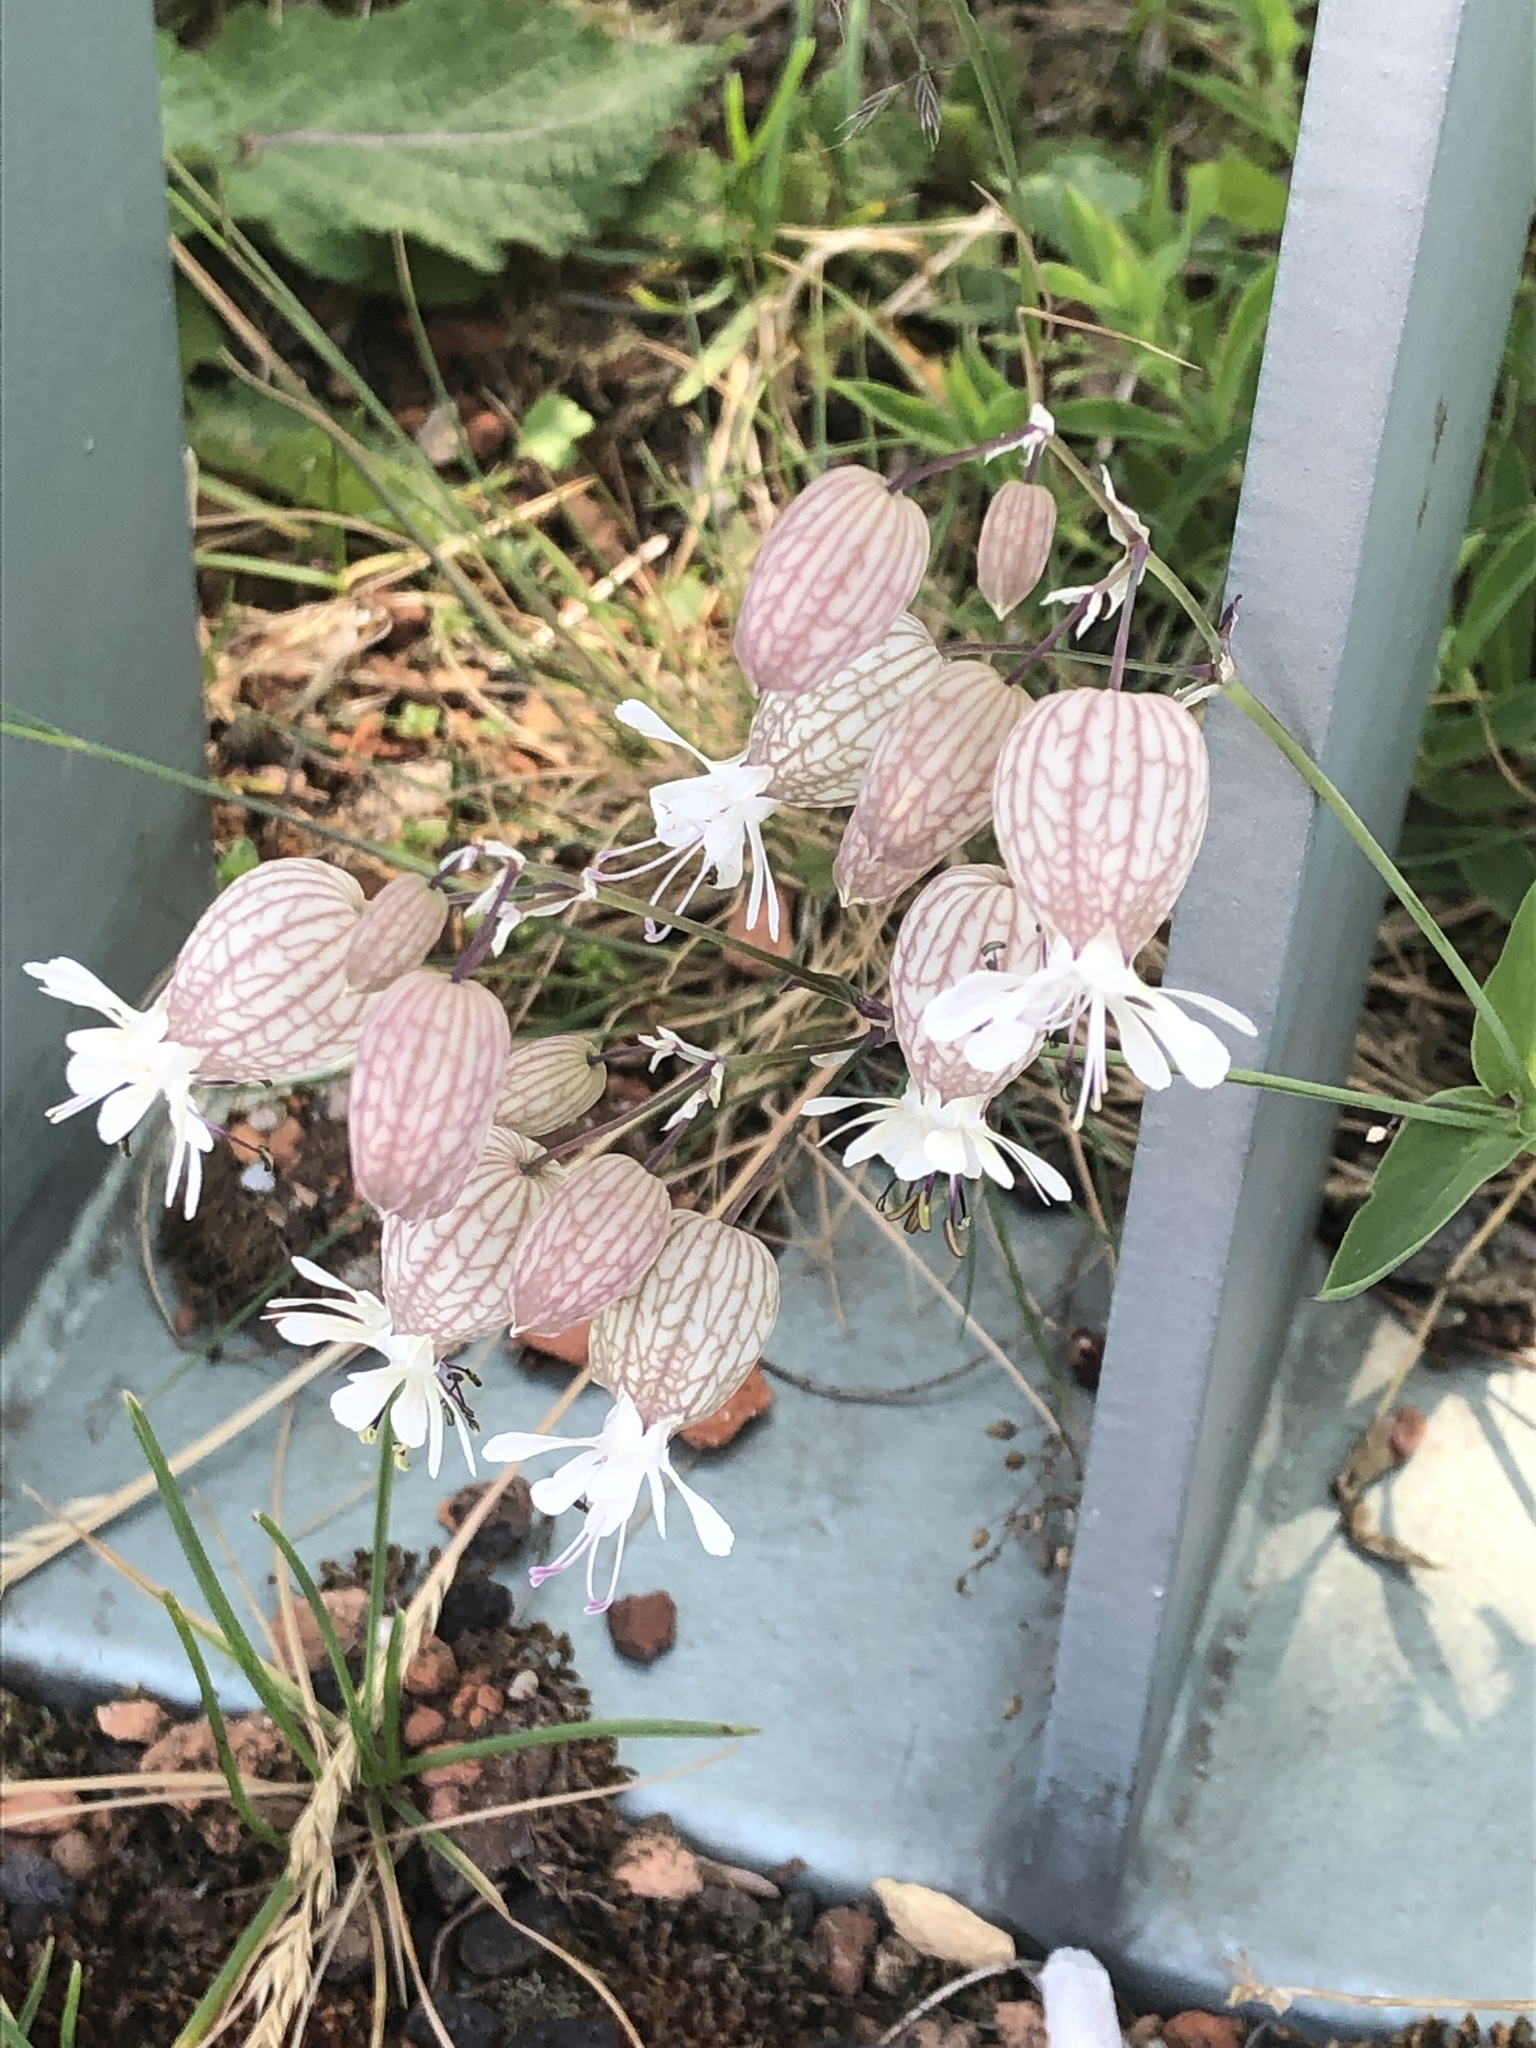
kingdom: Plantae
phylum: Tracheophyta
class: Magnoliopsida
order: Caryophyllales
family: Caryophyllaceae
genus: Silene
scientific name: Silene vulgaris
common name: Bladder campion
